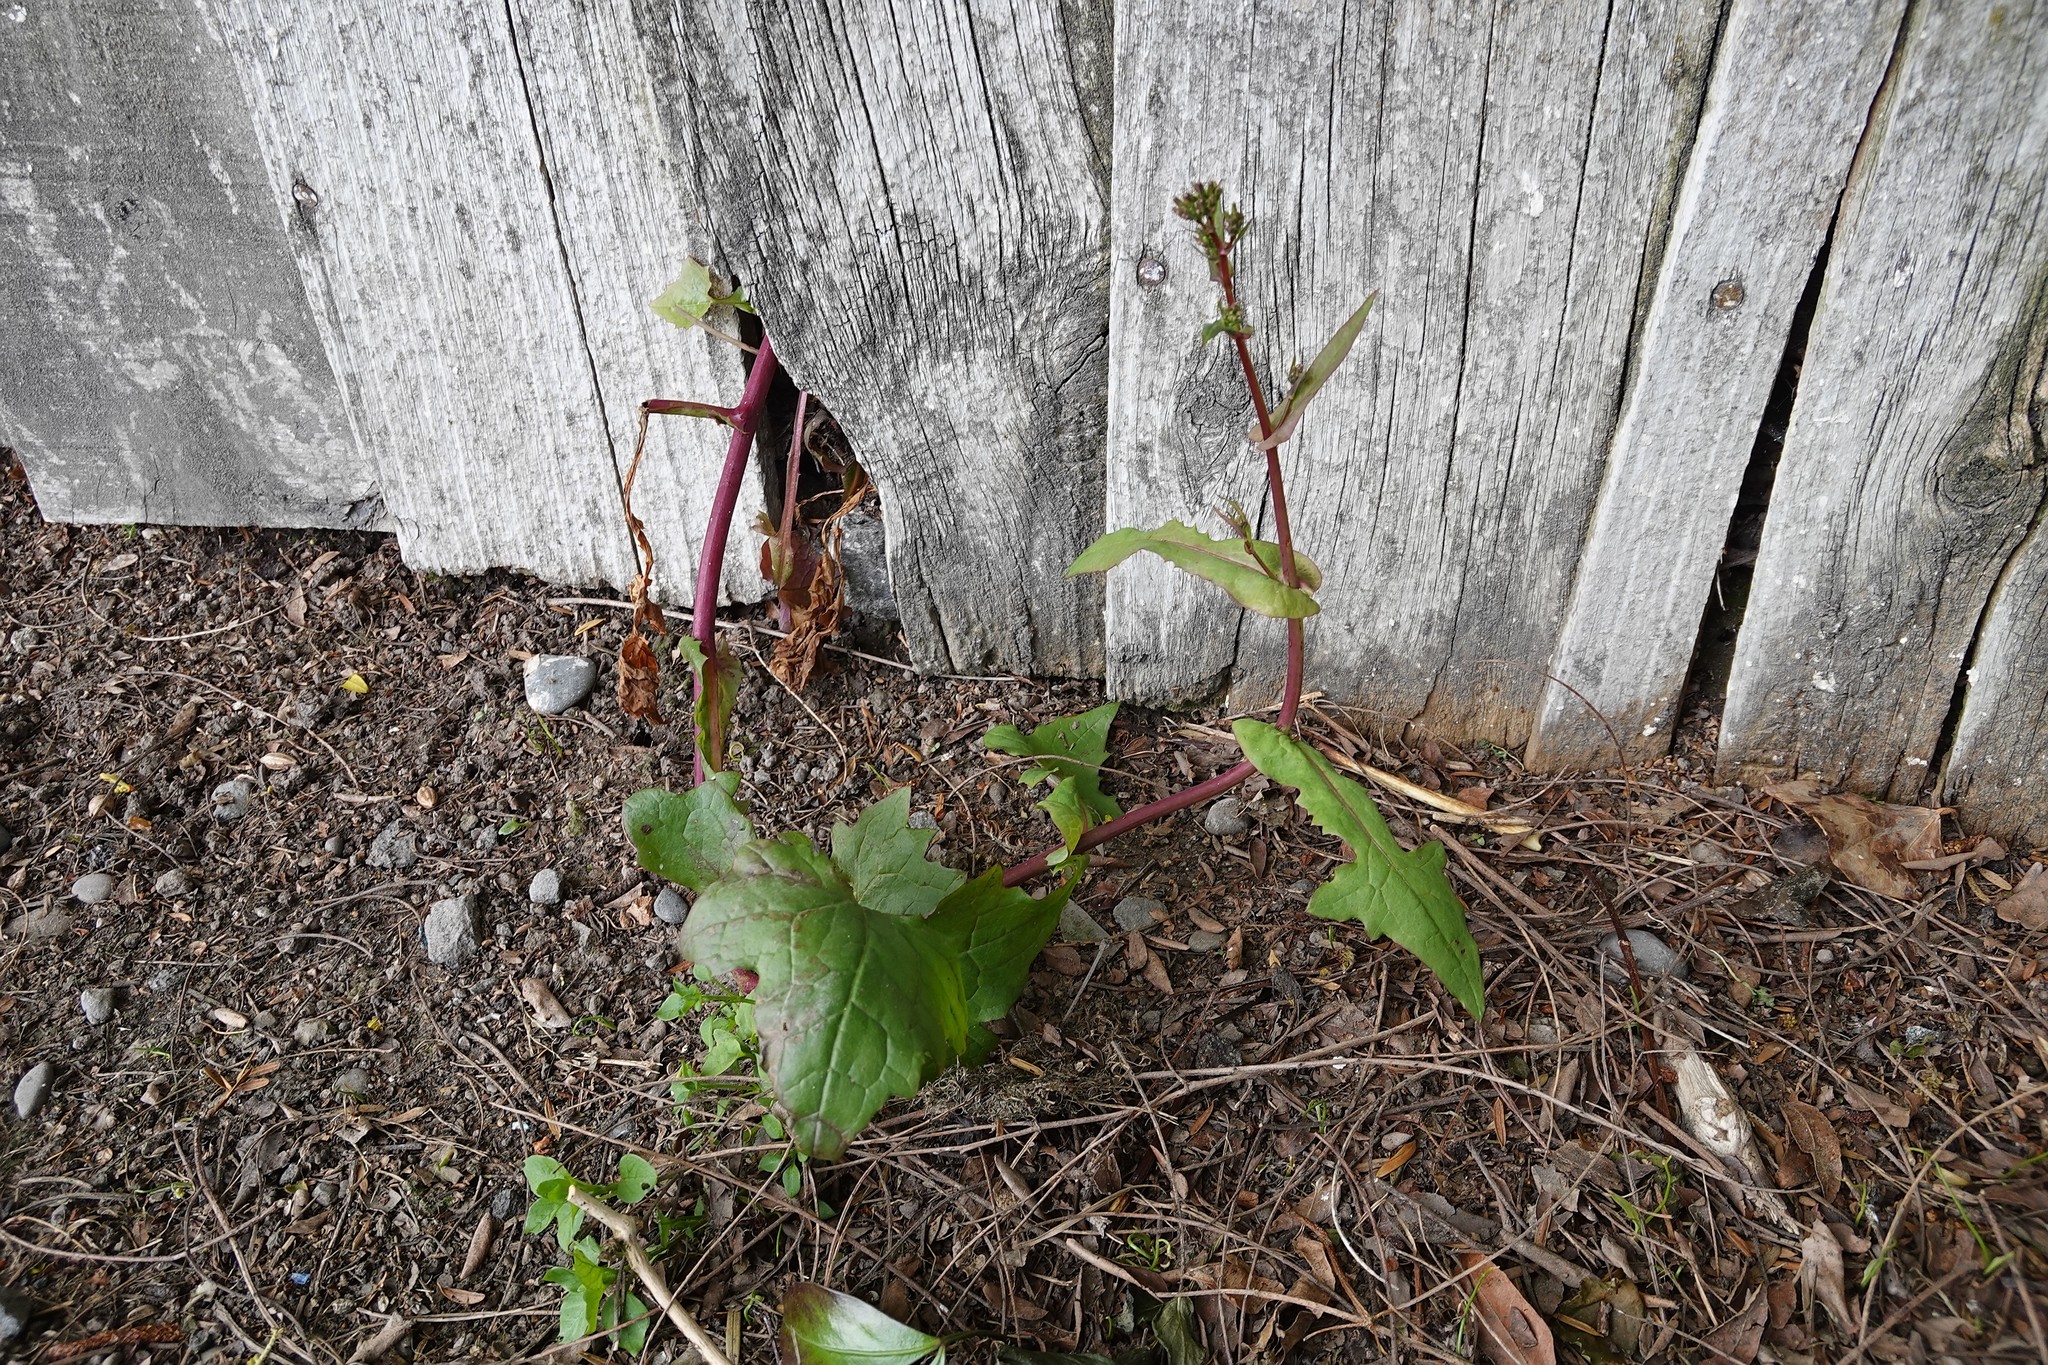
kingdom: Plantae
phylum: Tracheophyta
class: Magnoliopsida
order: Asterales
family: Asteraceae
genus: Mycelis
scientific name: Mycelis muralis
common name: Wall lettuce
